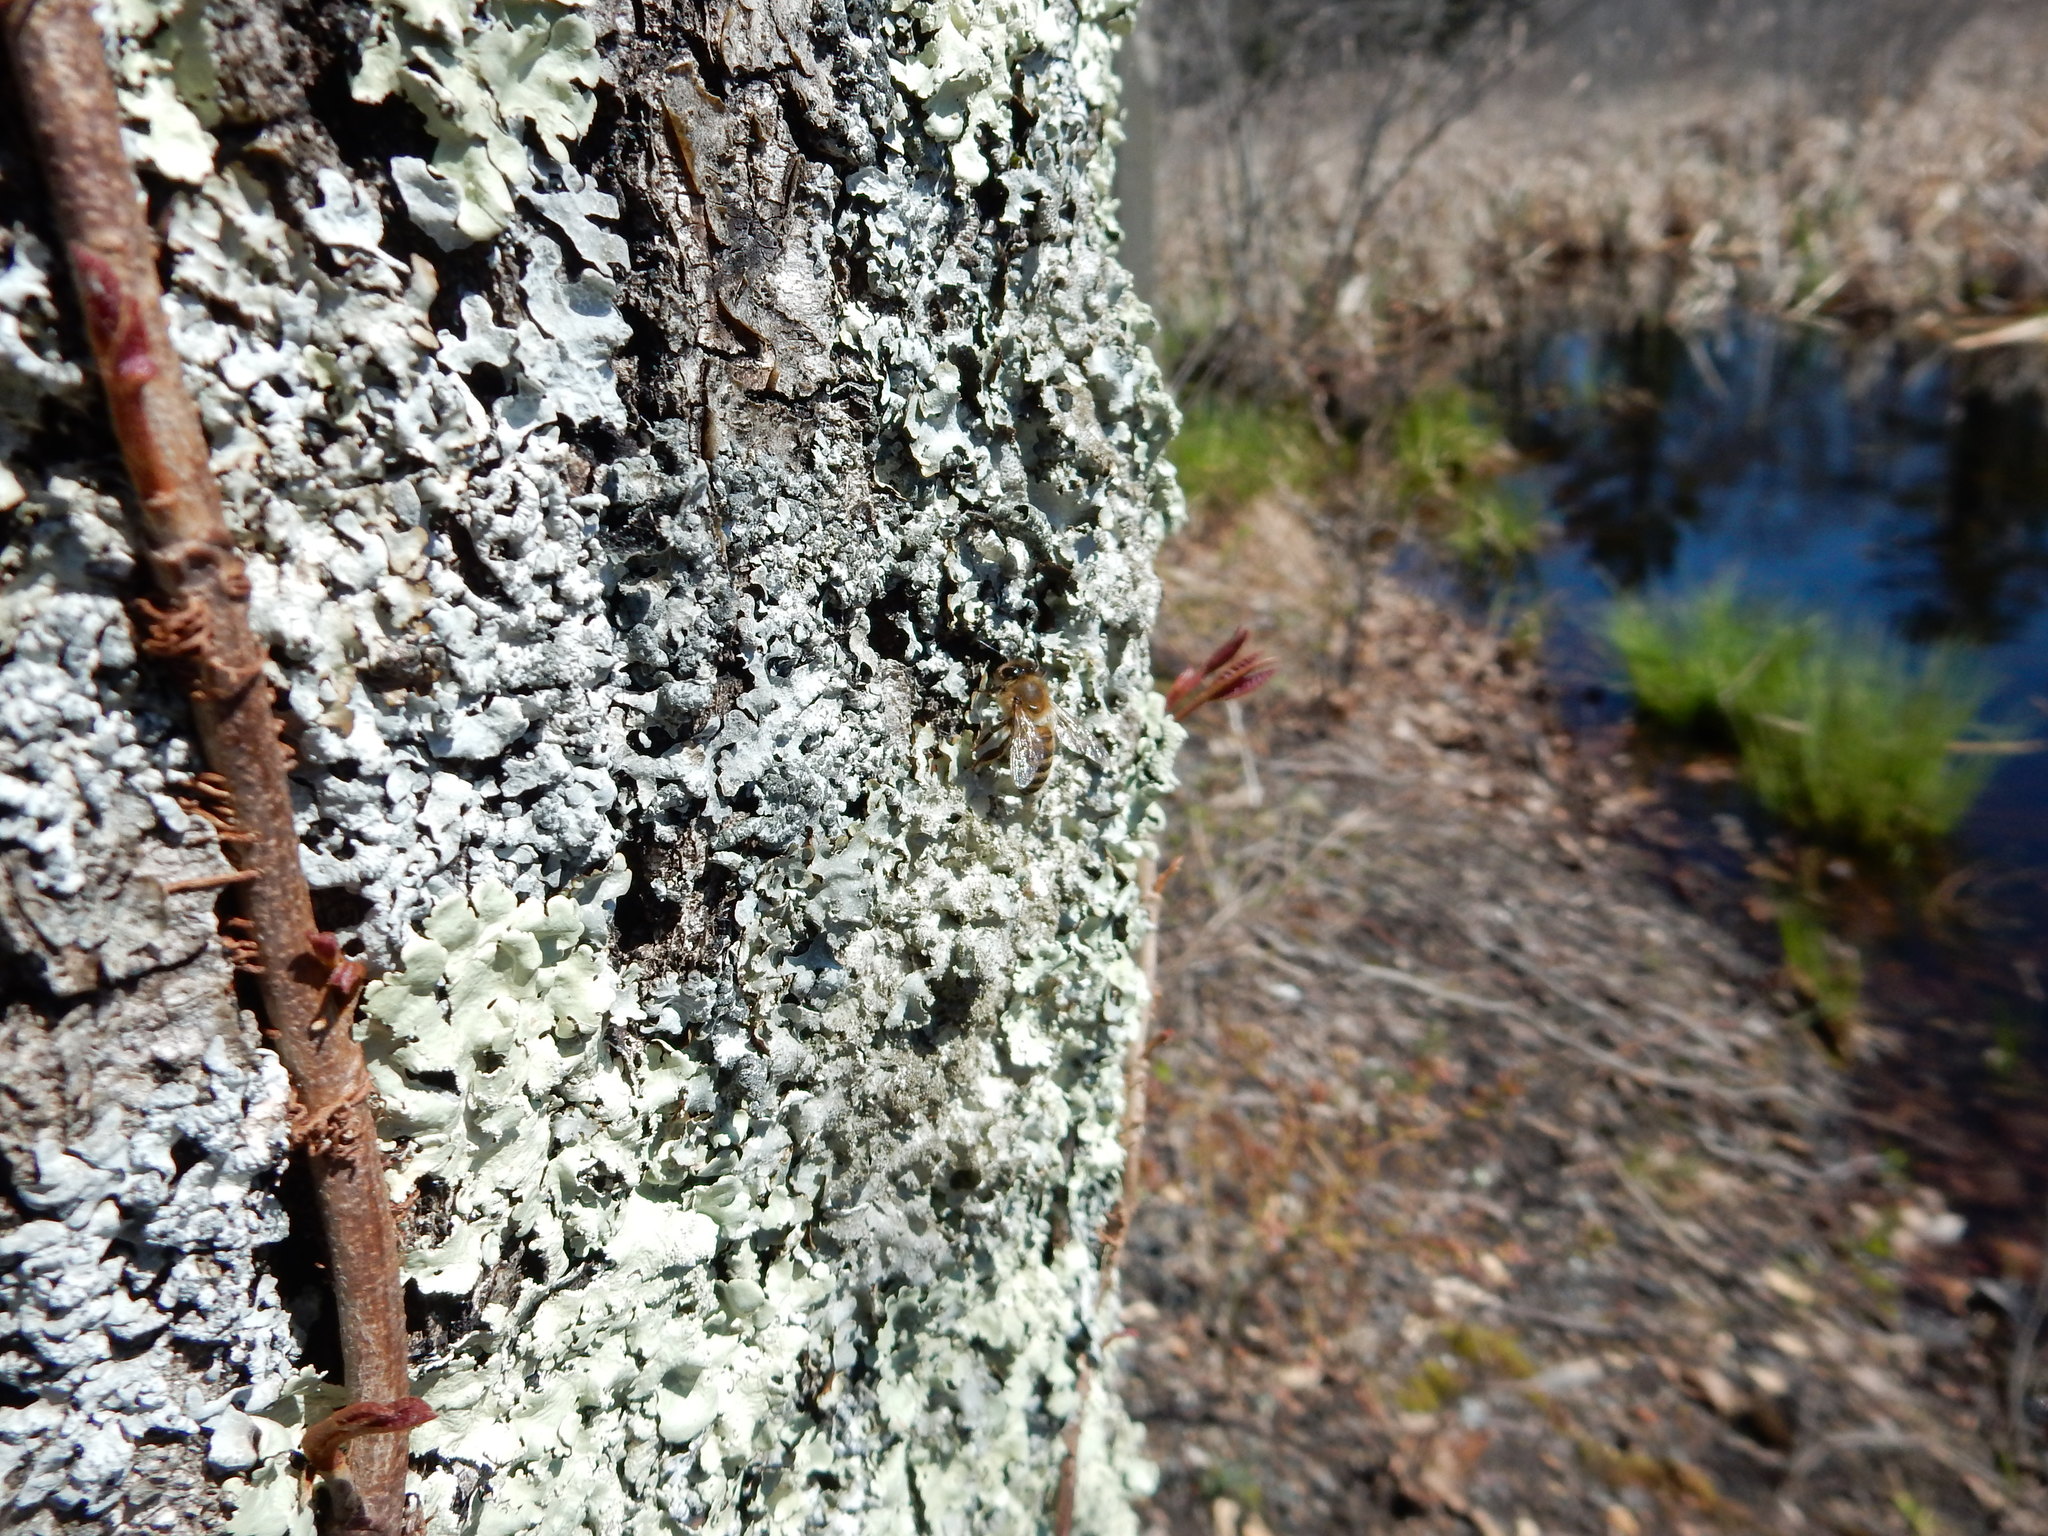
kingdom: Animalia
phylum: Arthropoda
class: Insecta
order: Hymenoptera
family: Apidae
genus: Apis
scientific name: Apis mellifera
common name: Honey bee
